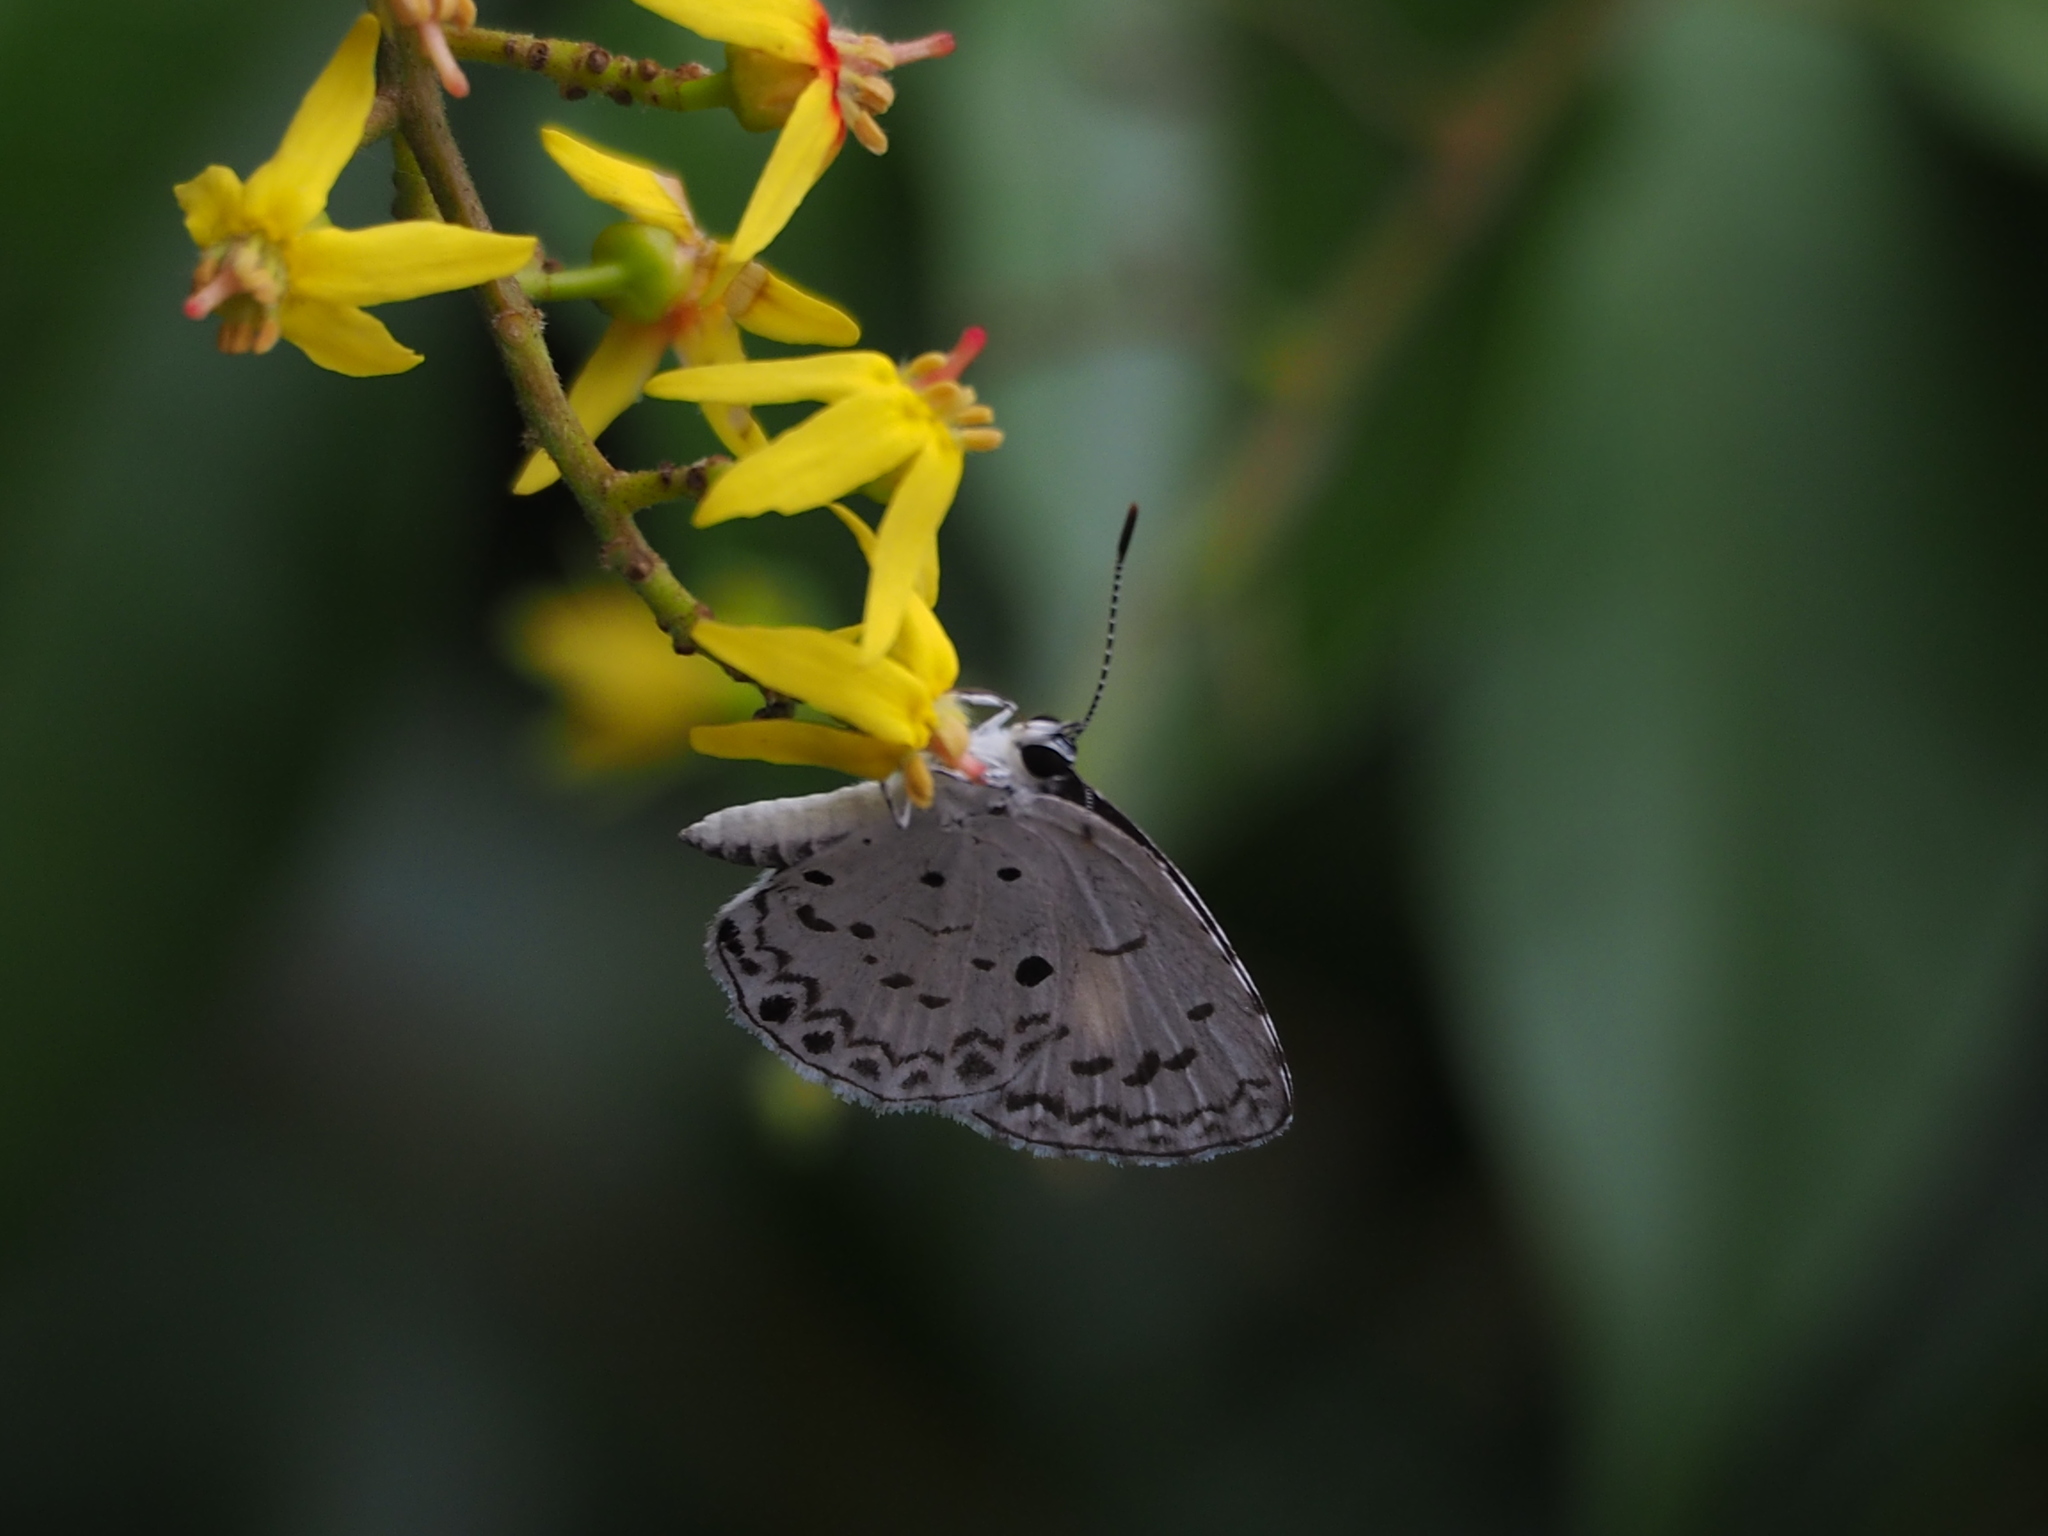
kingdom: Animalia
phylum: Arthropoda
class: Insecta
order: Lepidoptera
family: Lycaenidae
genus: Acytolepis
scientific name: Acytolepis puspa
